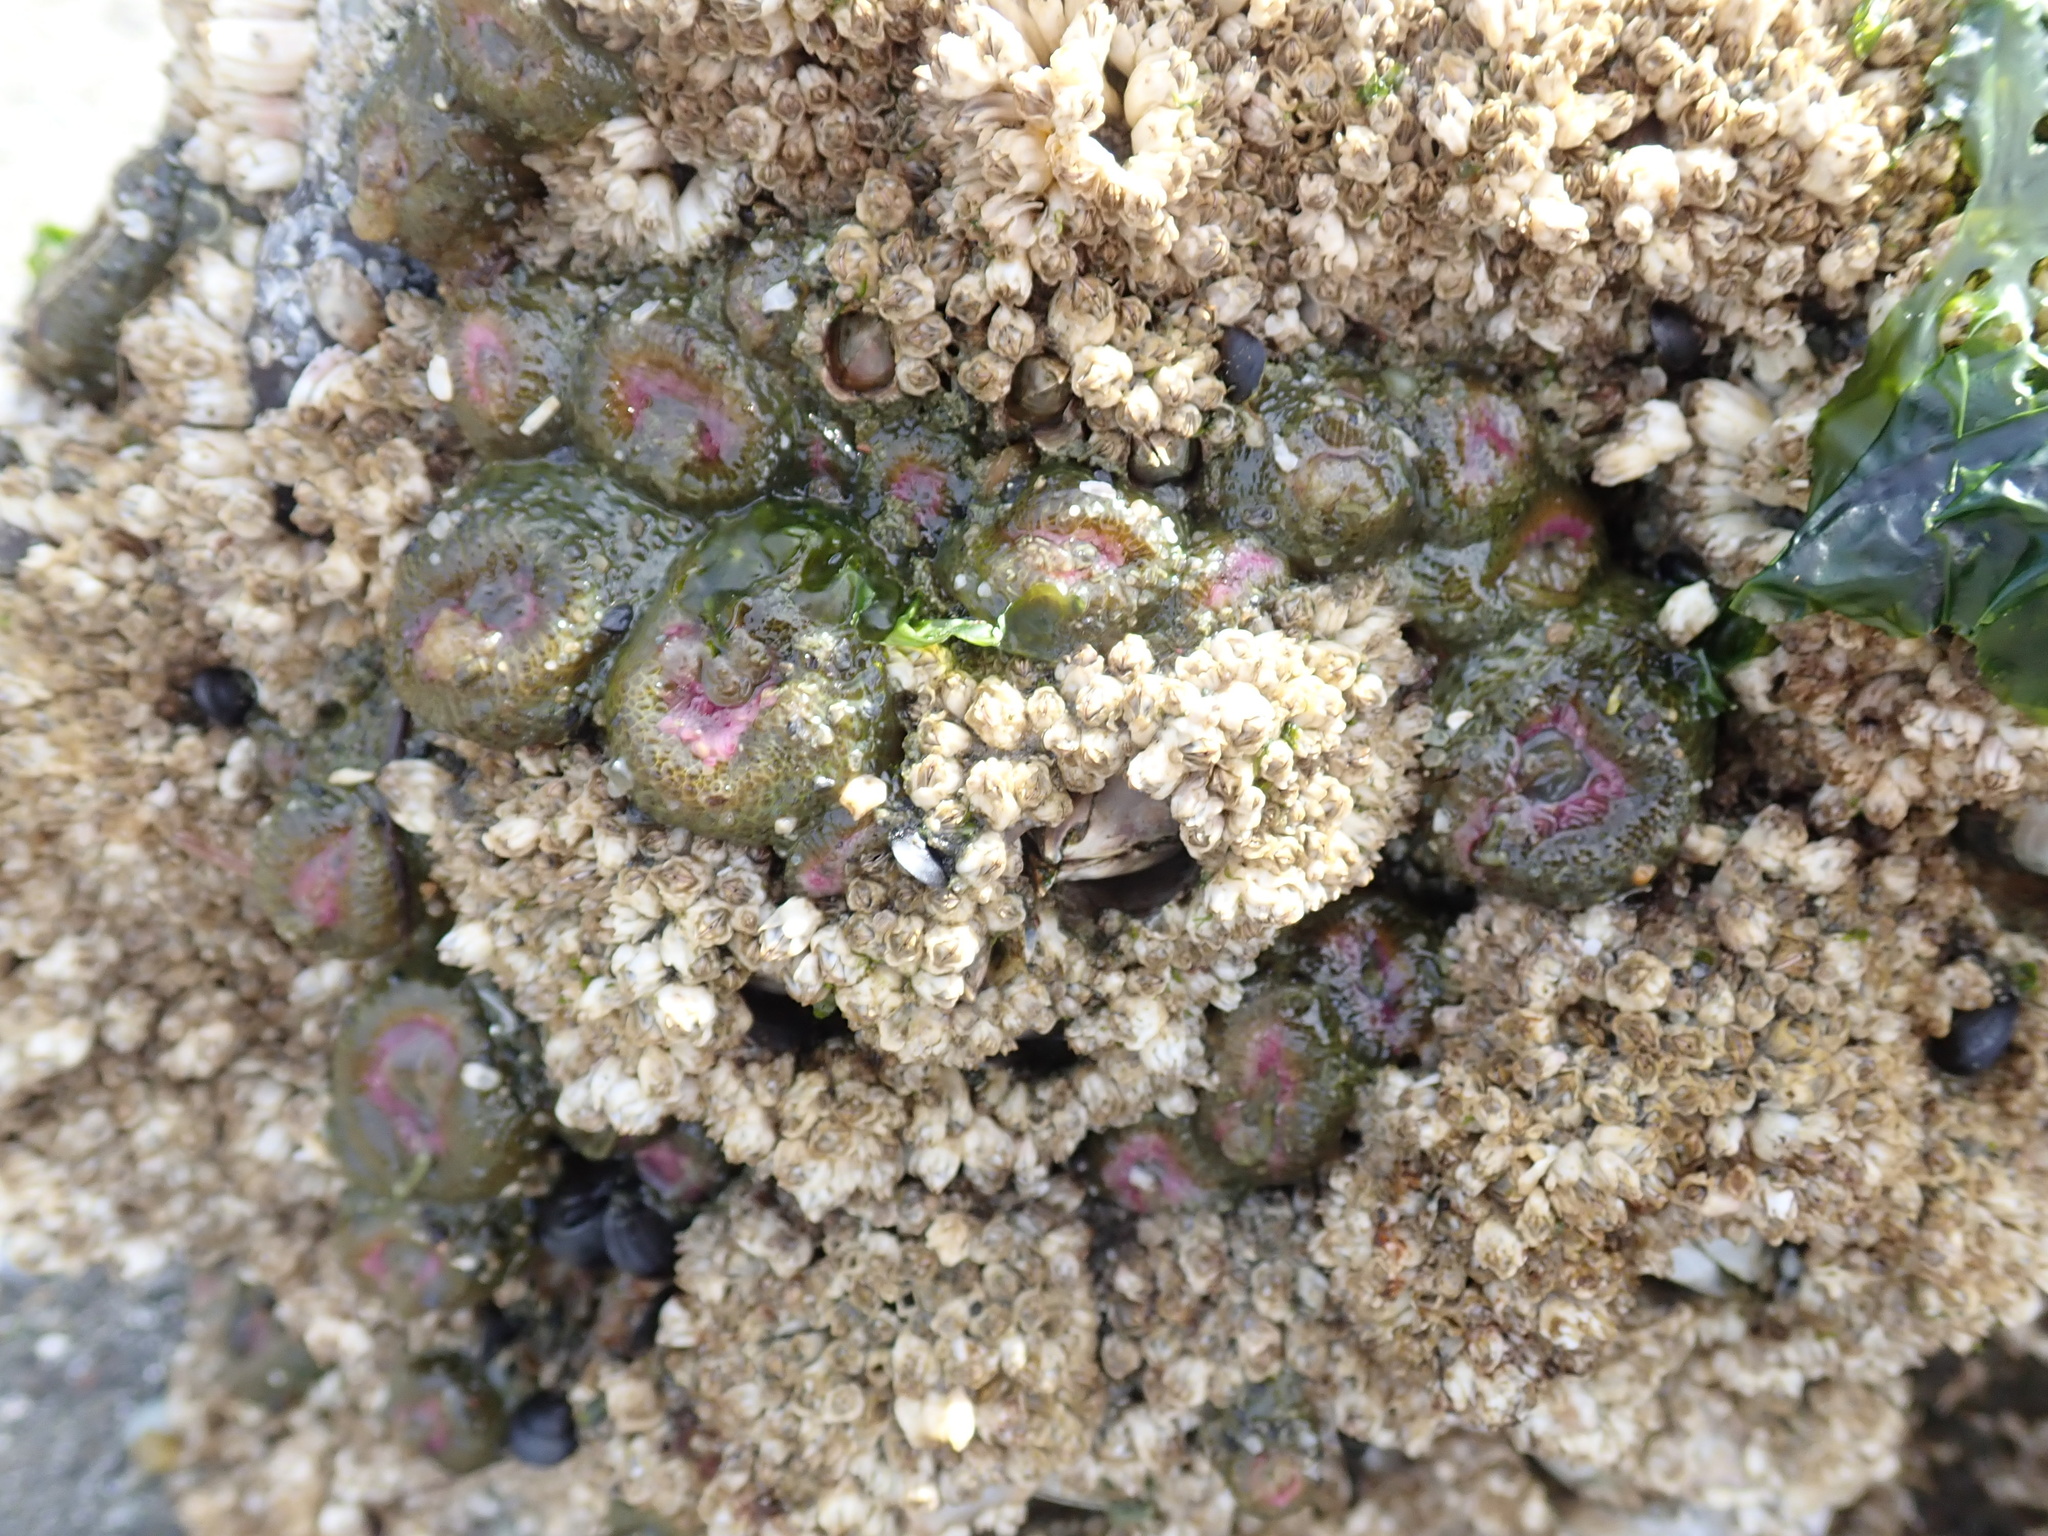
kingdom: Animalia
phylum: Cnidaria
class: Anthozoa
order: Actiniaria
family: Actiniidae
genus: Anthopleura
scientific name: Anthopleura elegantissima
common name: Clonal anemone
